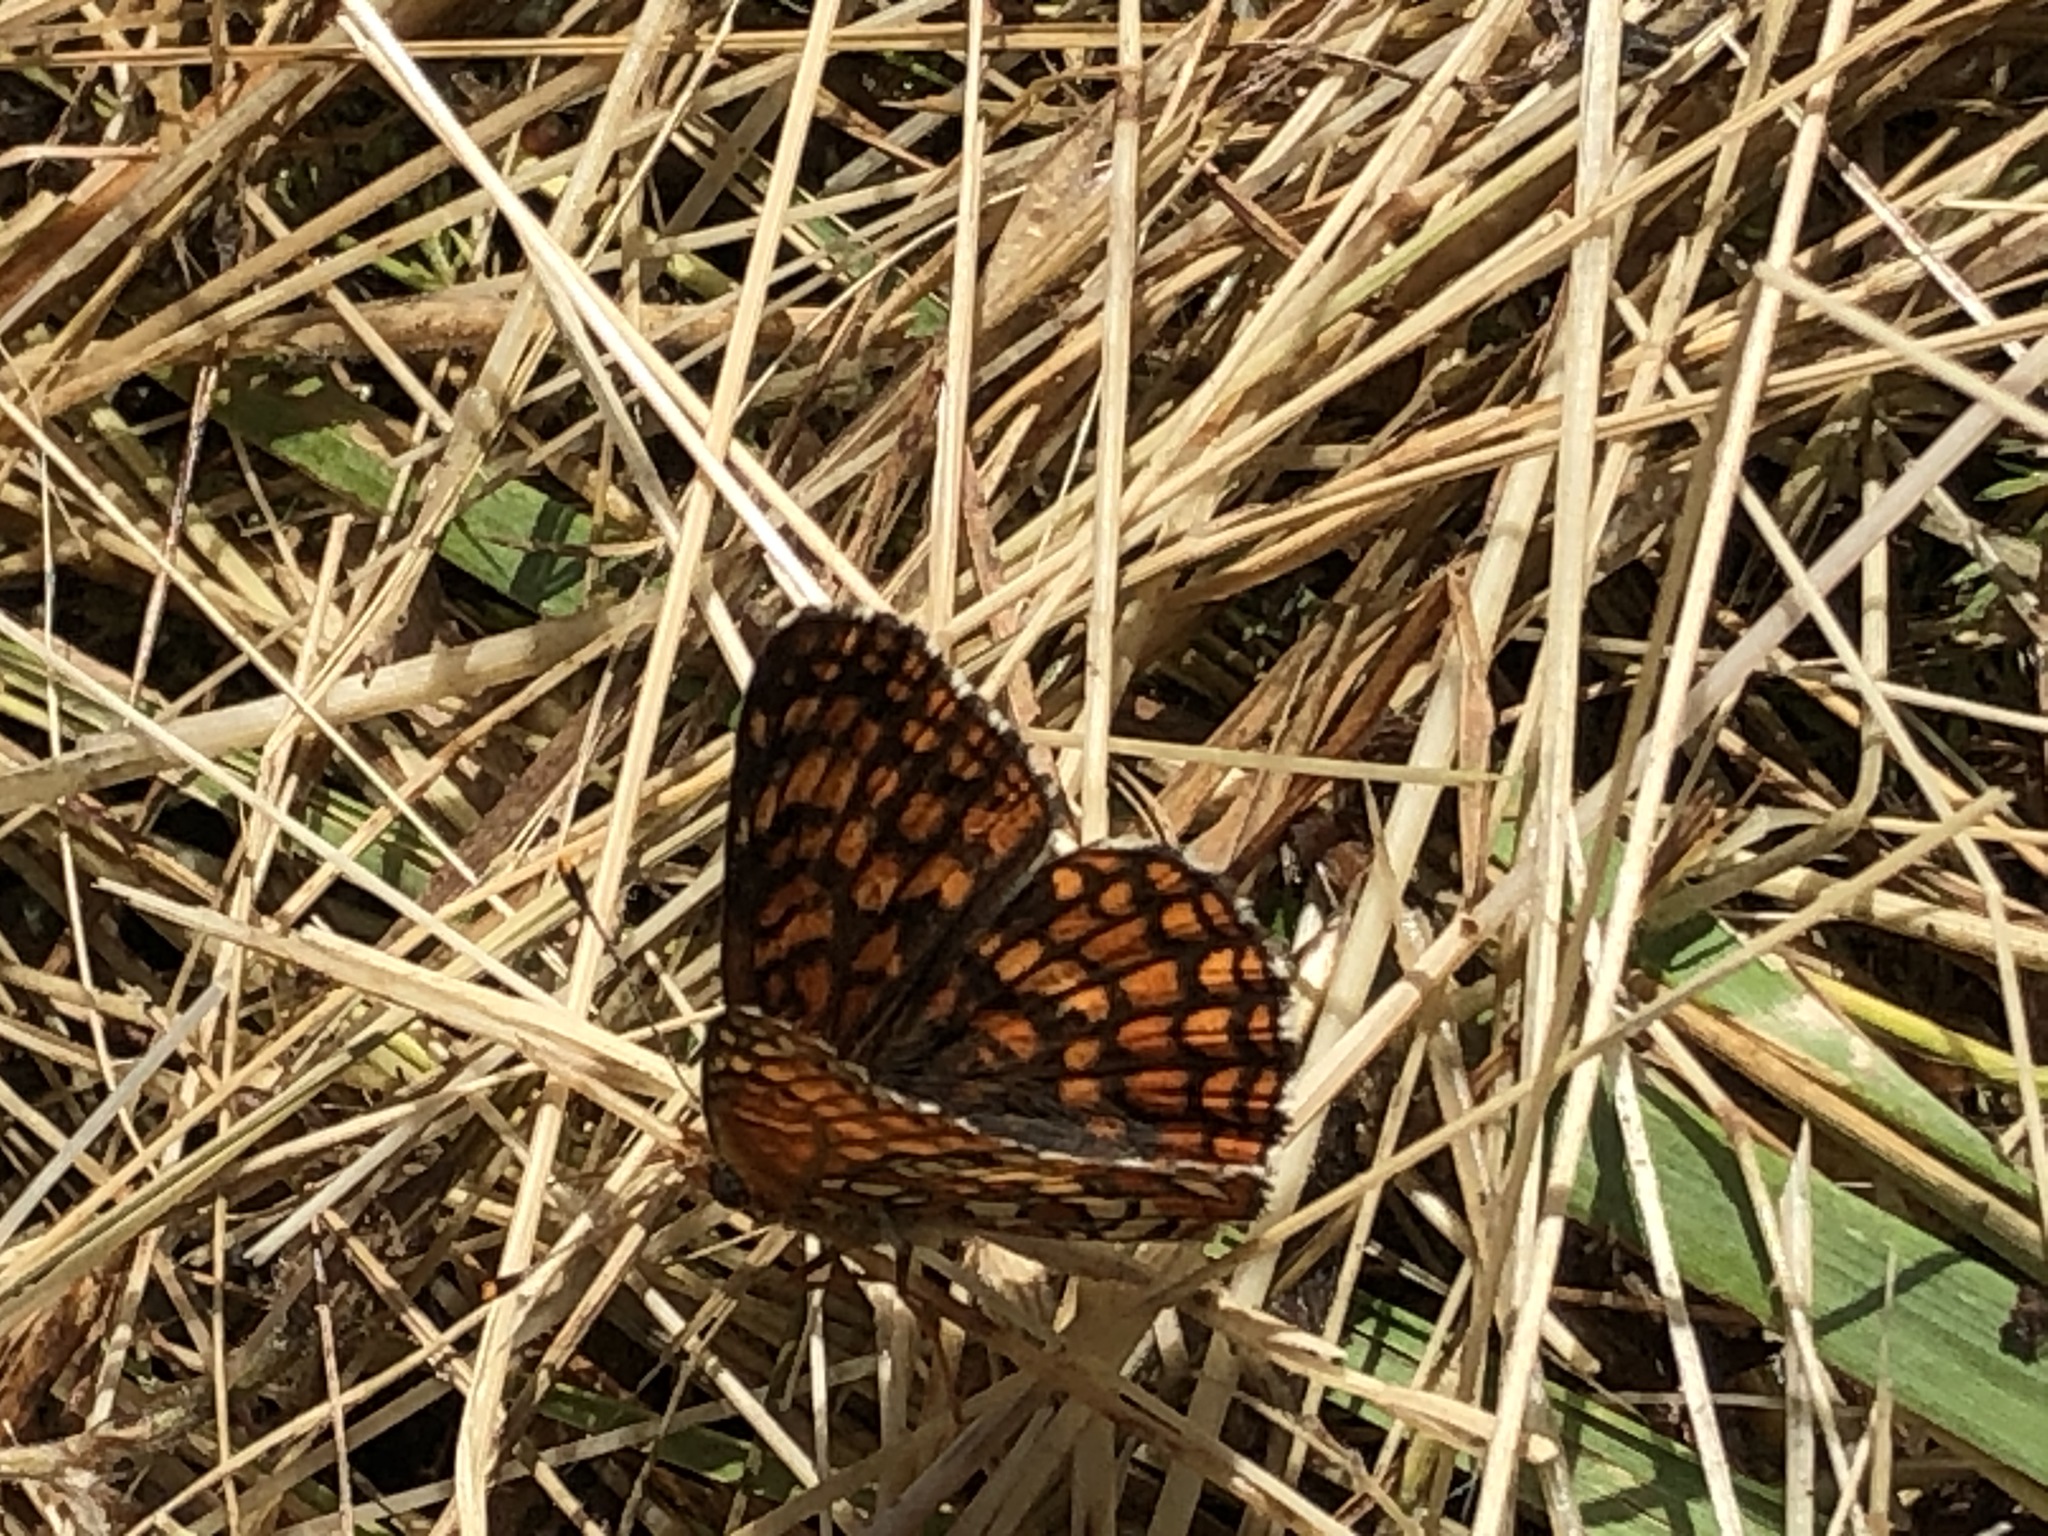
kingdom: Animalia
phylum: Arthropoda
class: Insecta
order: Lepidoptera
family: Nymphalidae
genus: Chlosyne
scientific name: Chlosyne palla
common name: Northern checkerspot
